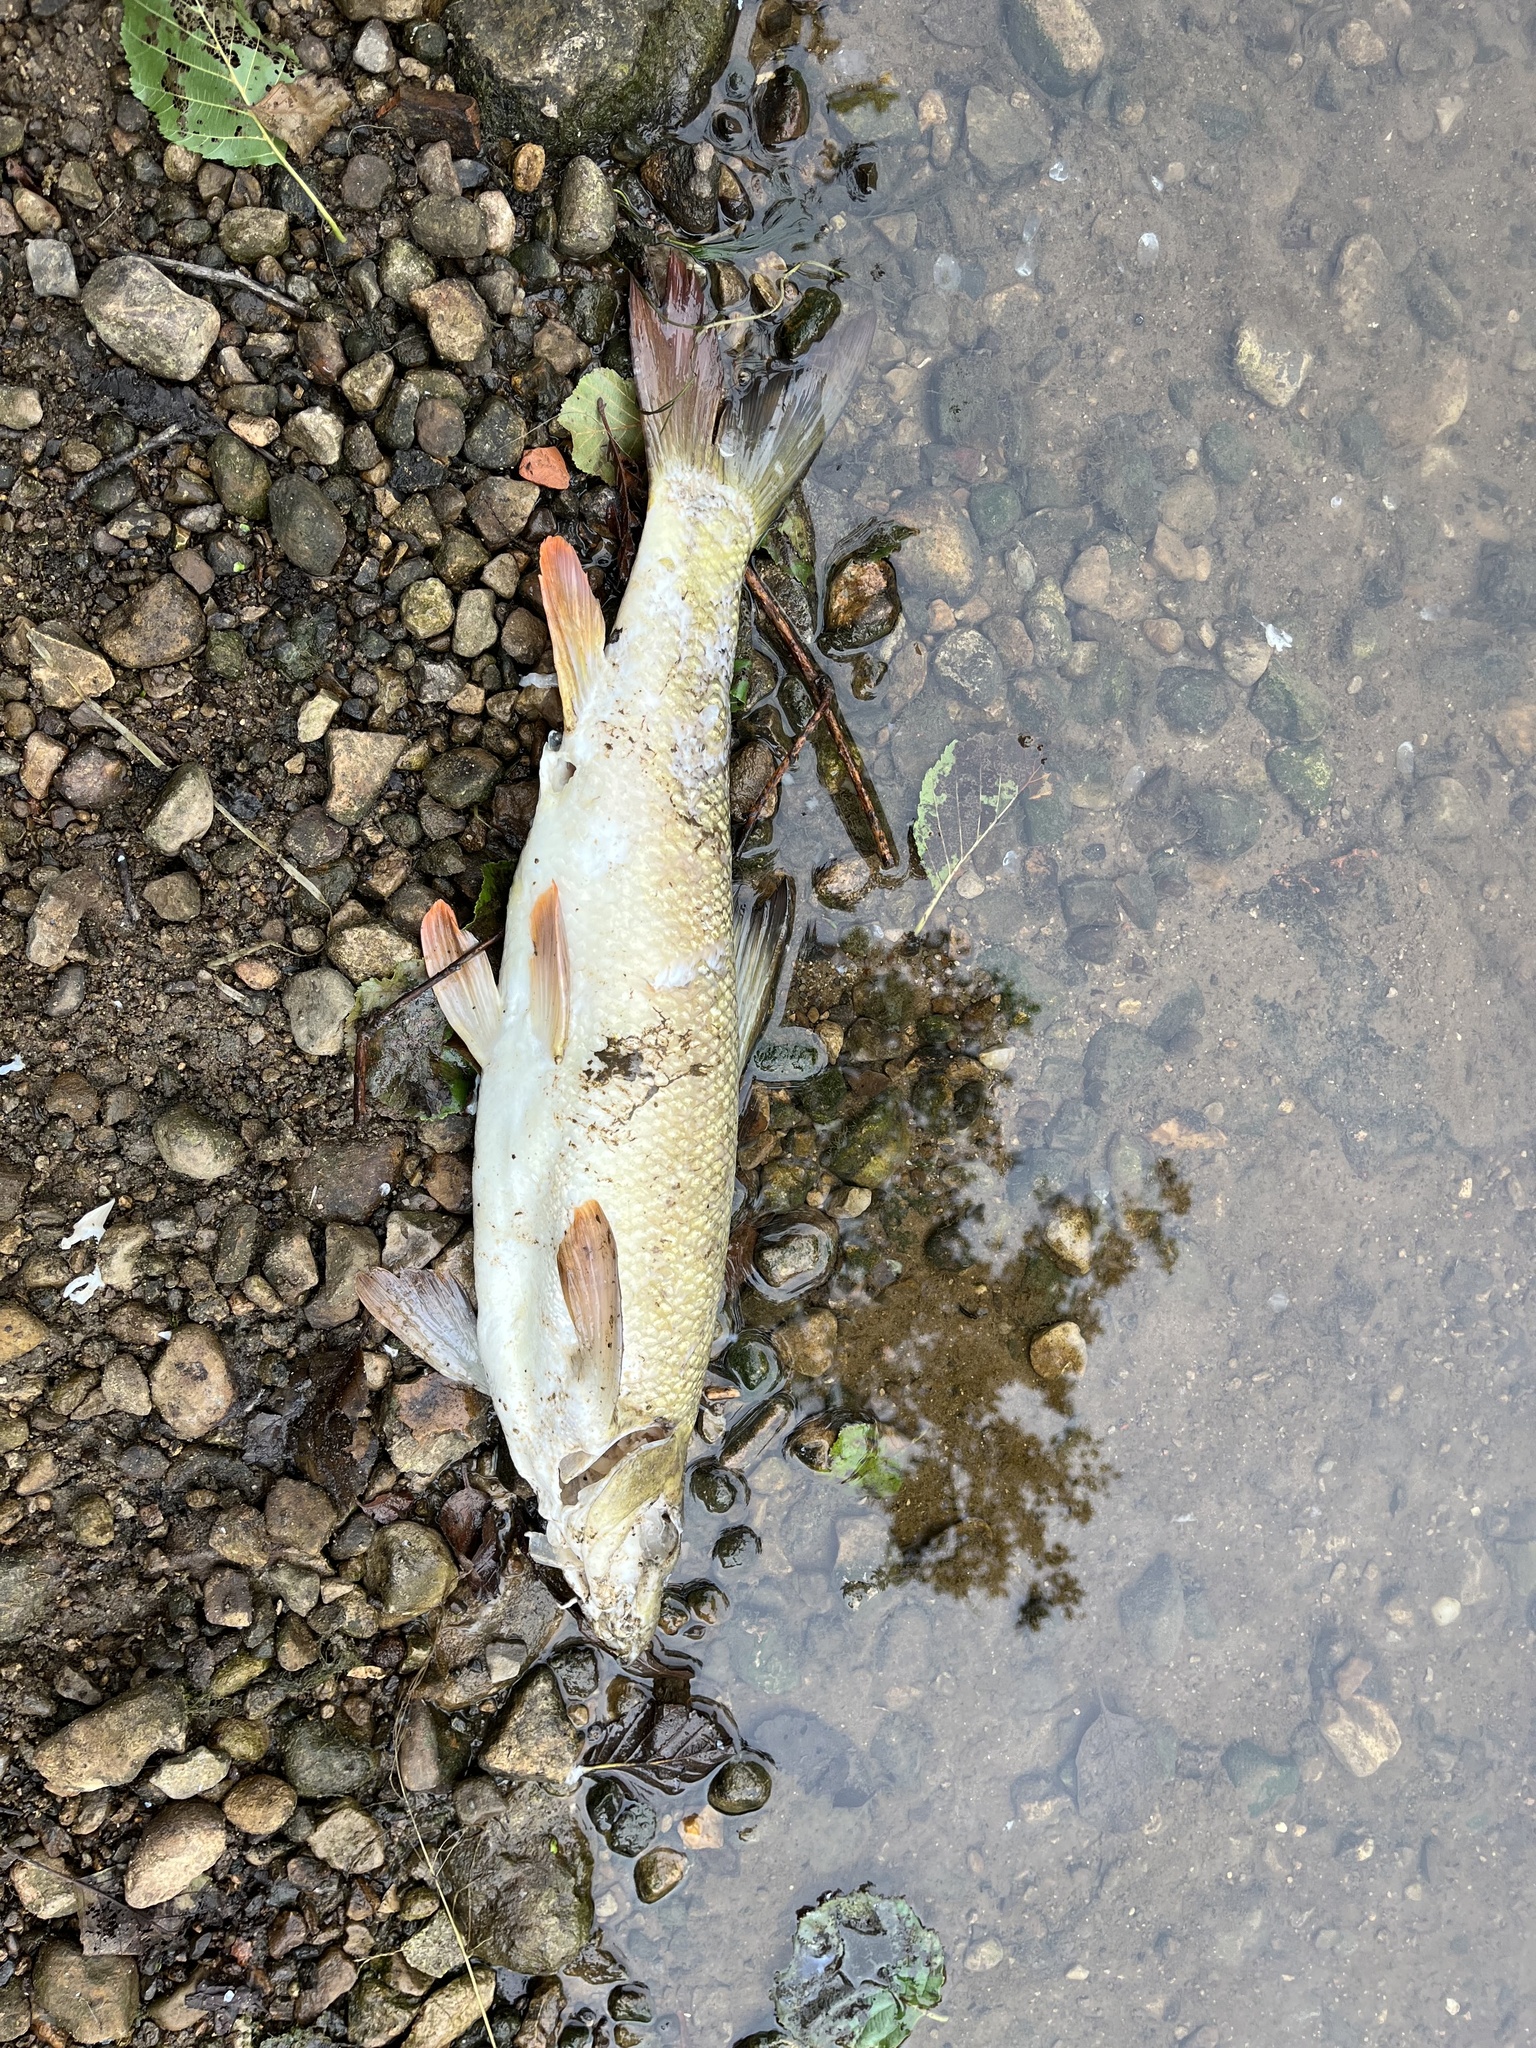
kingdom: Animalia
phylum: Chordata
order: Cypriniformes
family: Cyprinidae
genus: Barbus
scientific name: Barbus barbus
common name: Barbel
